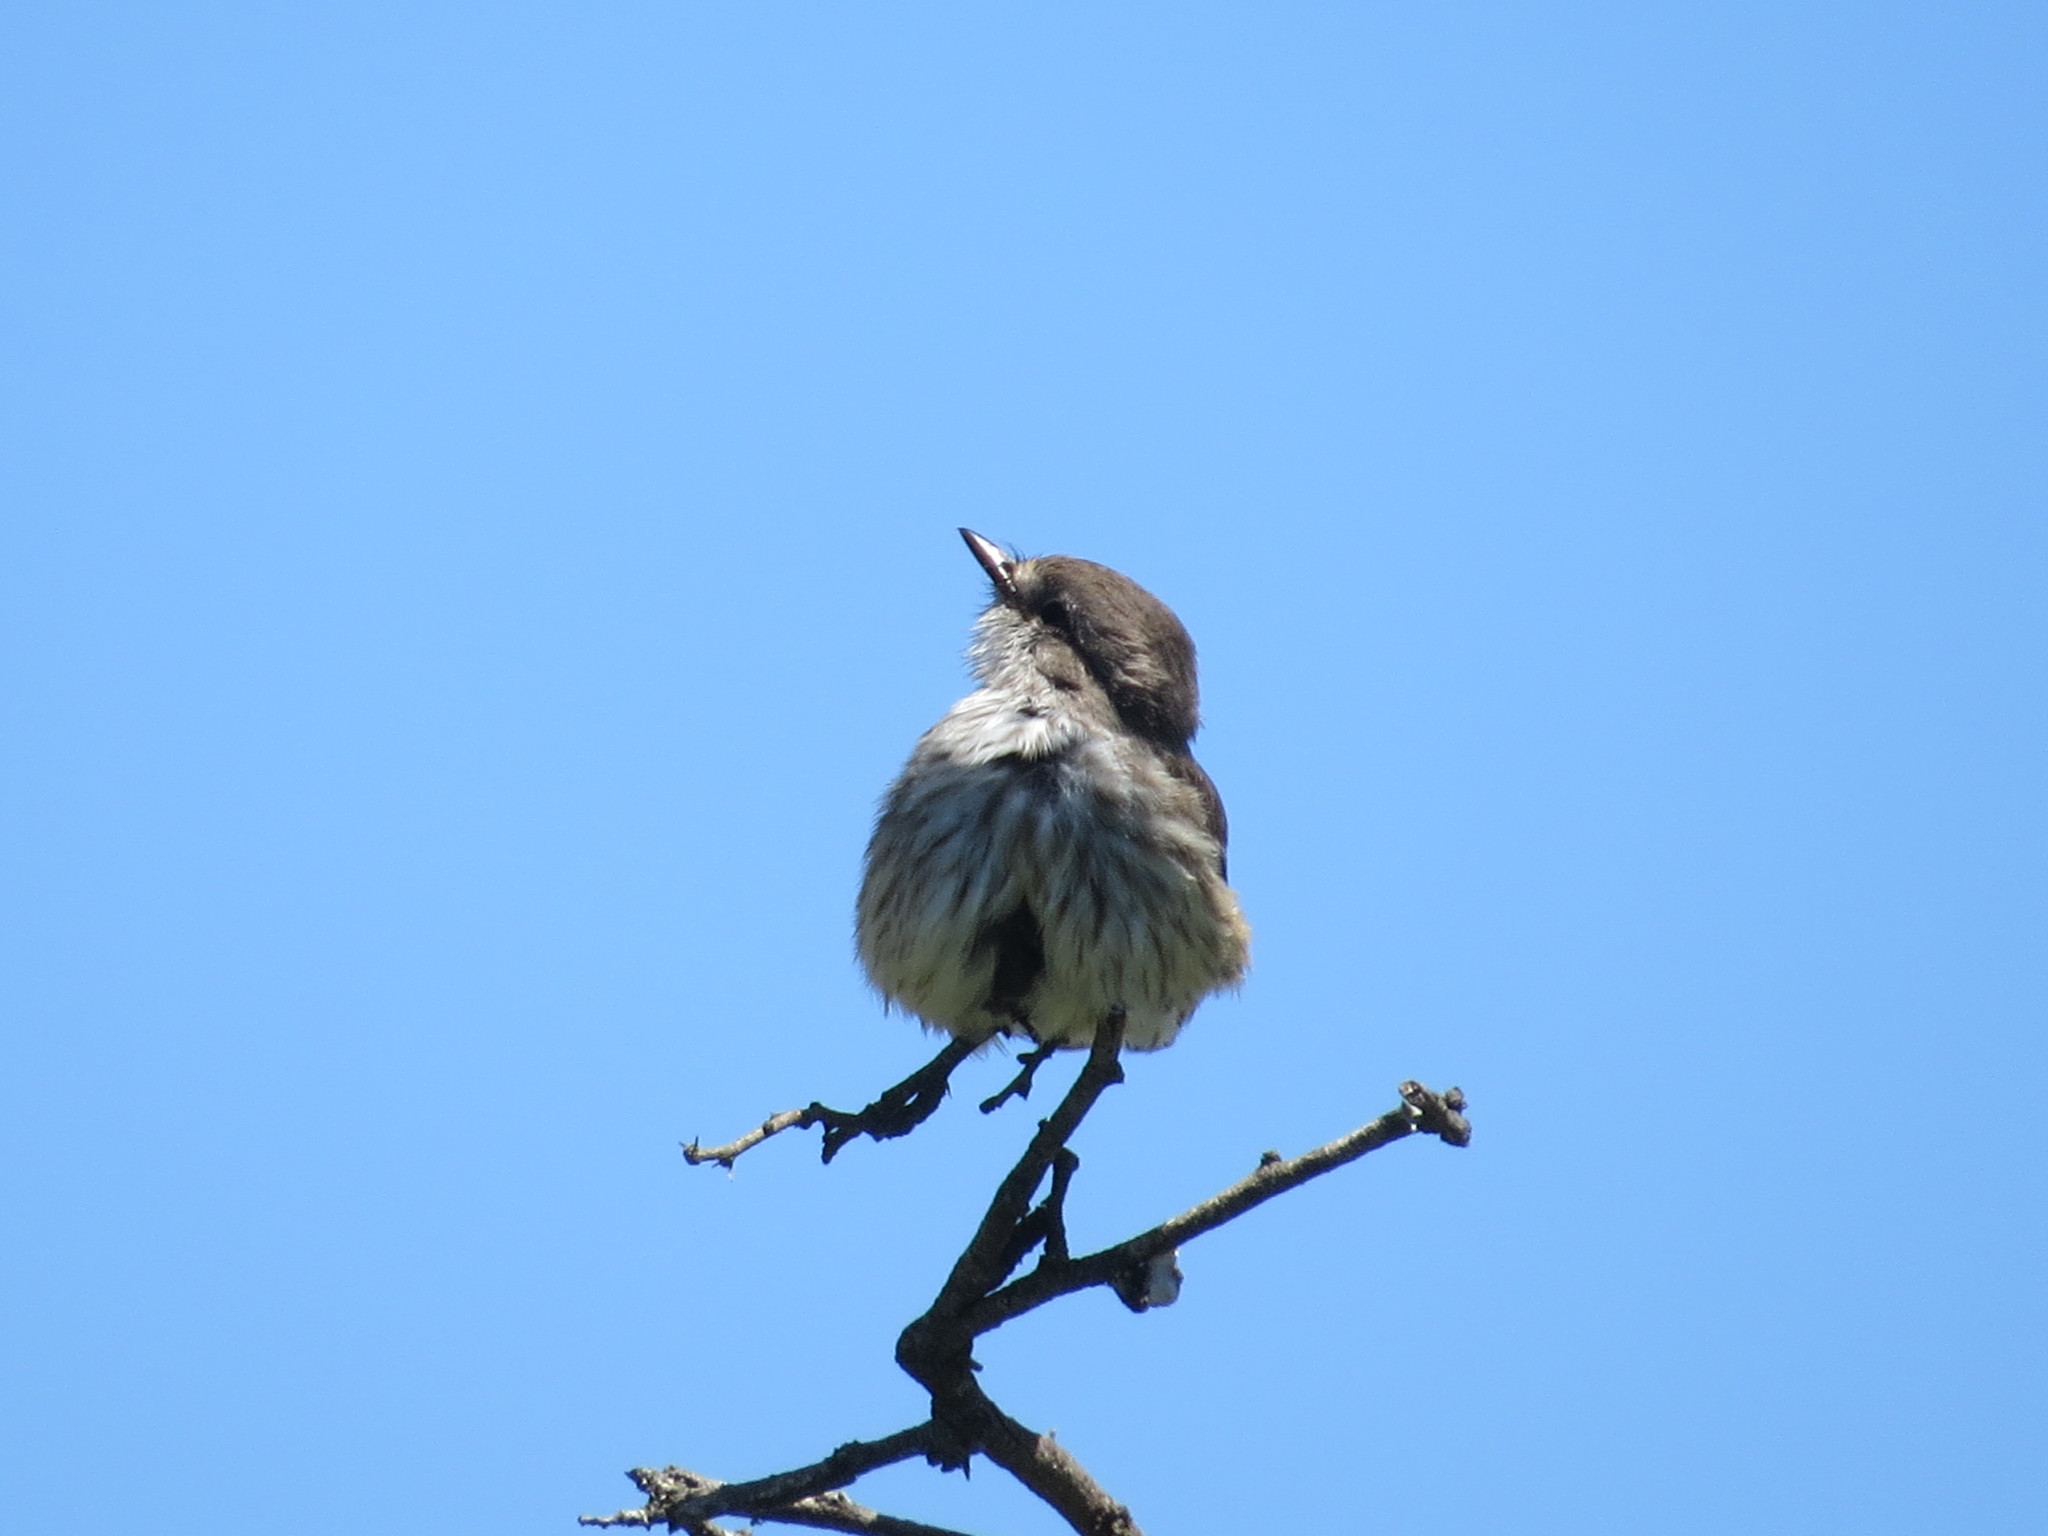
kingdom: Animalia
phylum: Chordata
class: Aves
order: Passeriformes
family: Tyrannidae
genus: Pyrocephalus
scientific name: Pyrocephalus rubinus
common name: Vermilion flycatcher
